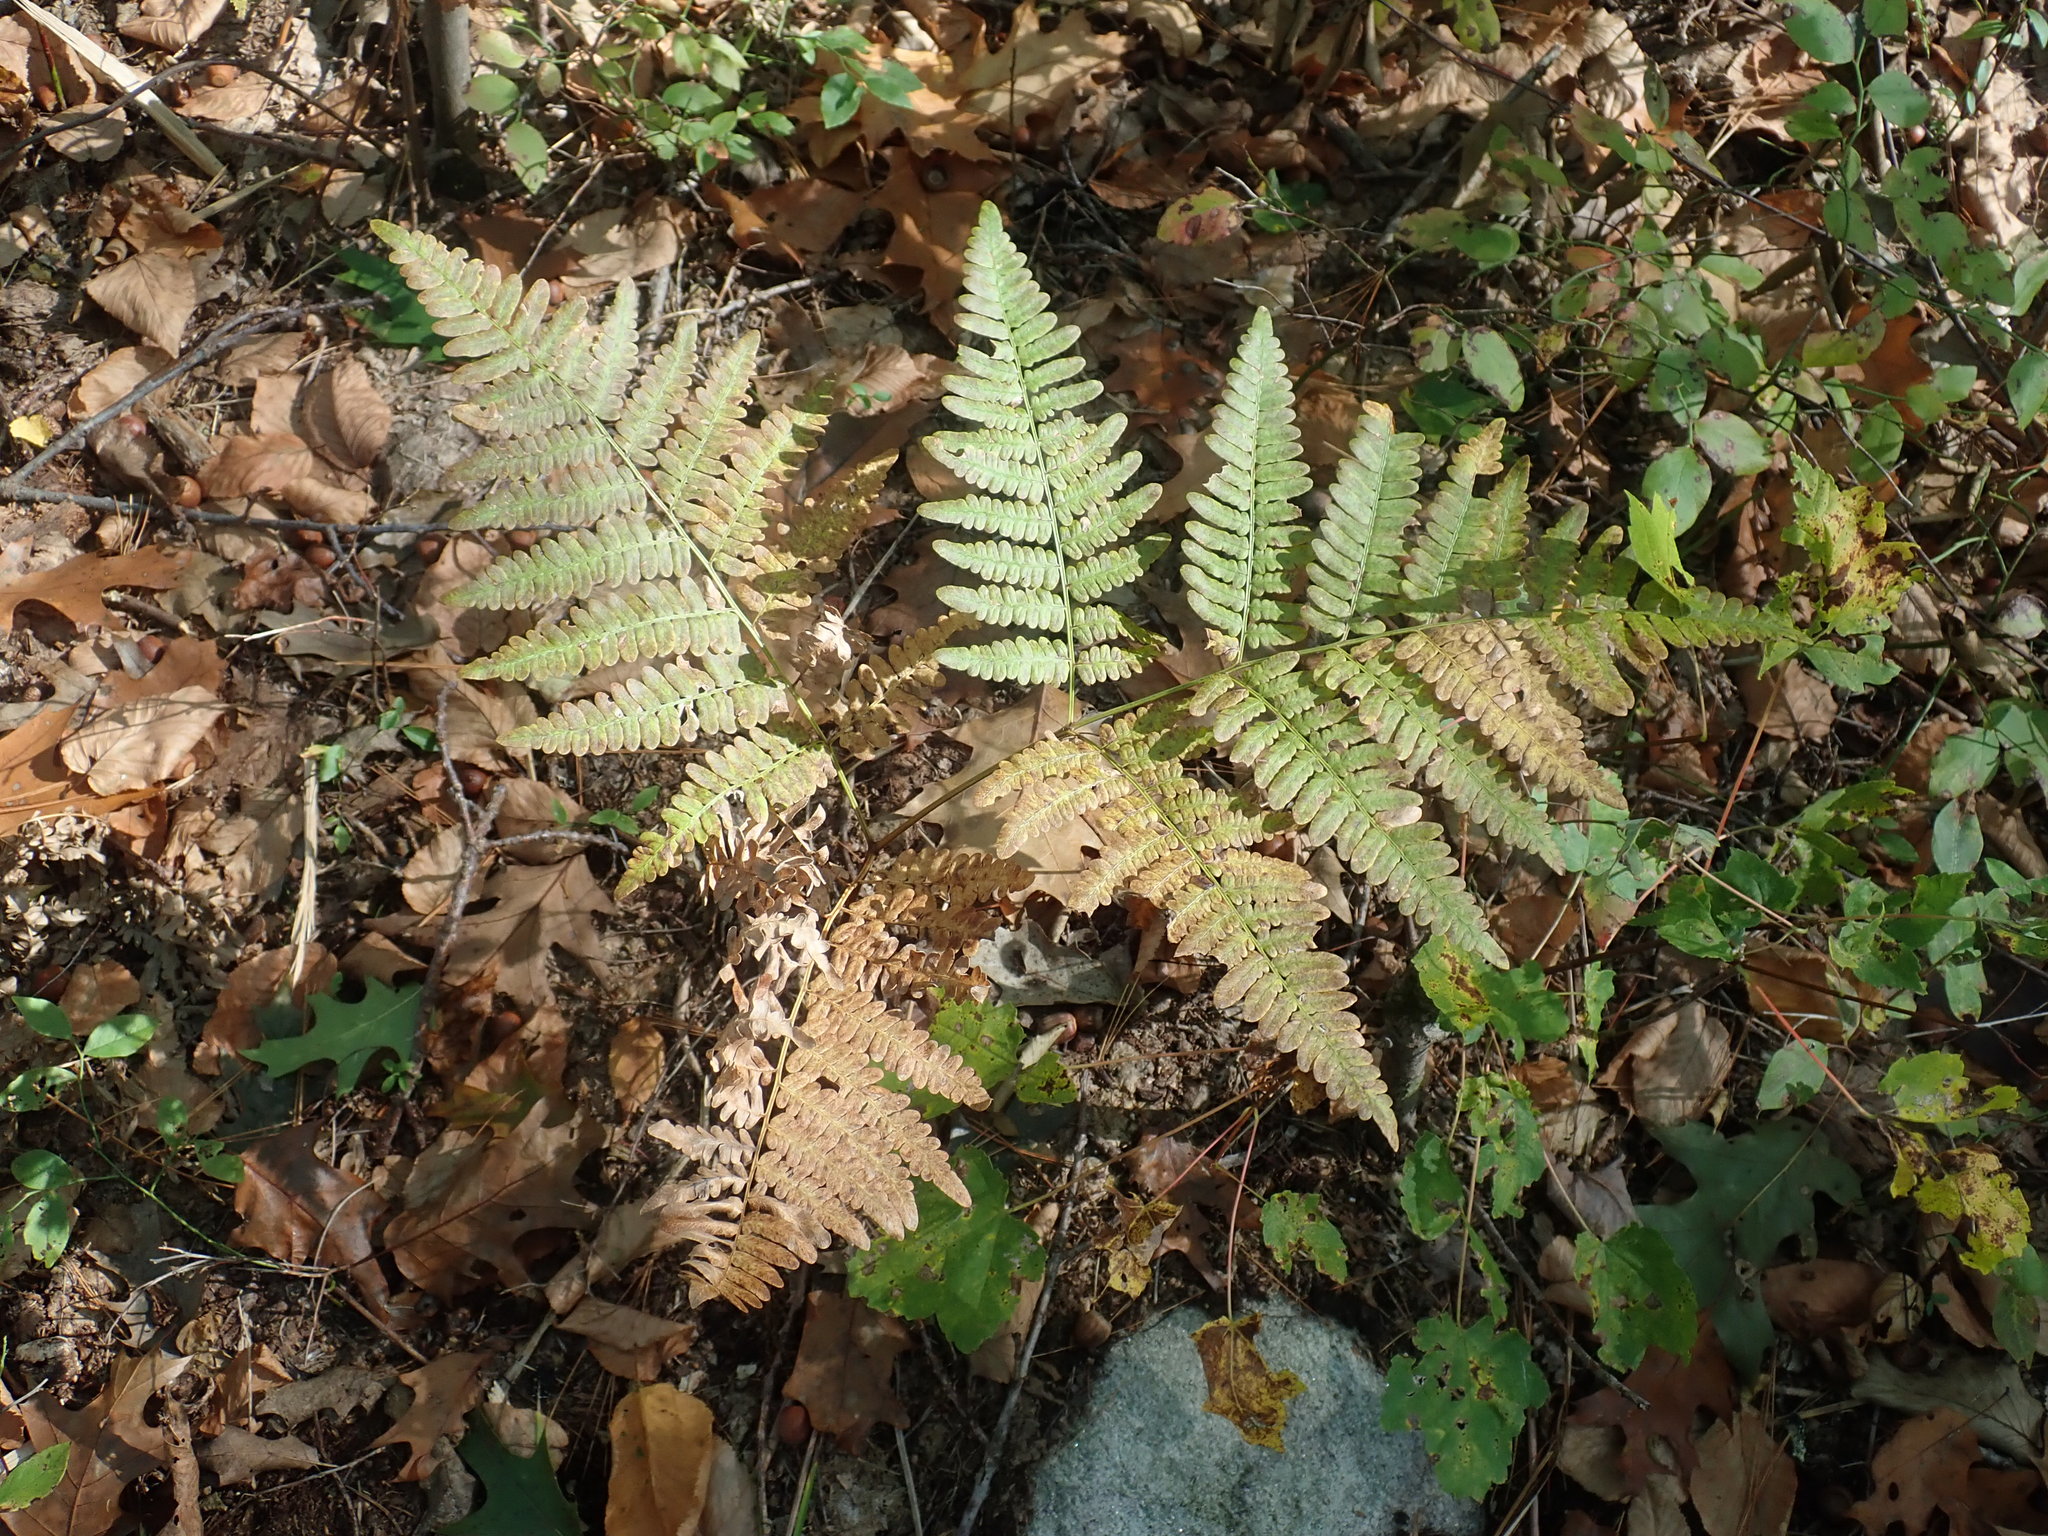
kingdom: Plantae
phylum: Tracheophyta
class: Polypodiopsida
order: Polypodiales
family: Dennstaedtiaceae
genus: Pteridium
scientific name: Pteridium aquilinum
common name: Bracken
